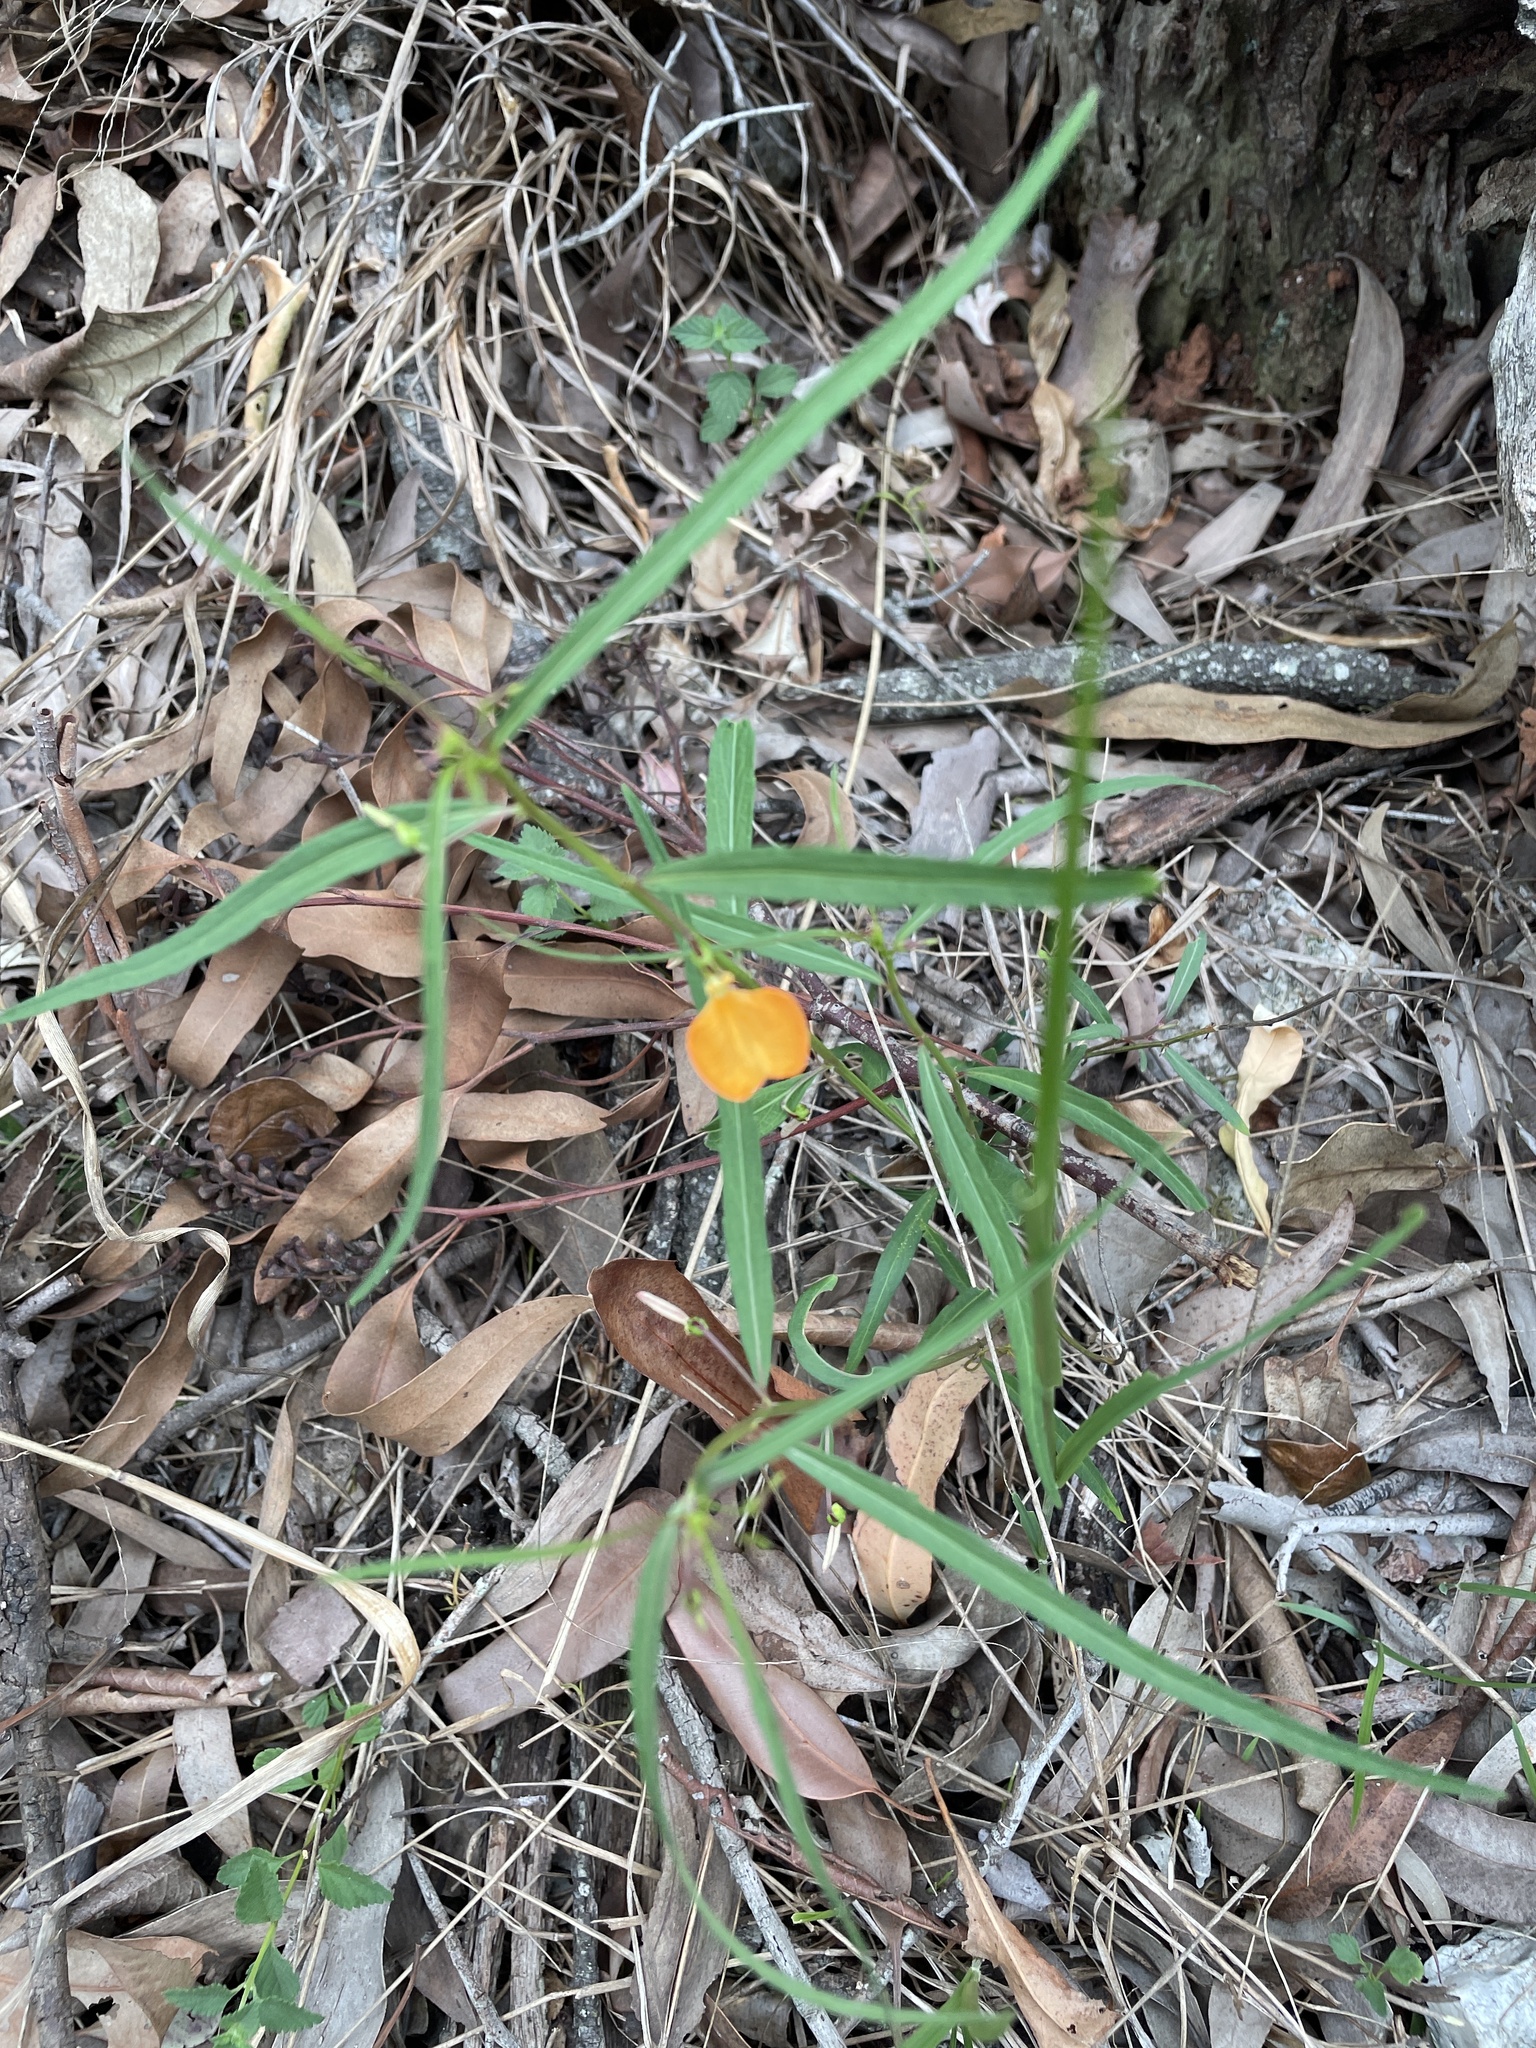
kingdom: Plantae
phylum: Tracheophyta
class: Magnoliopsida
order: Malpighiales
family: Violaceae
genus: Pigea
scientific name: Pigea stellarioides
